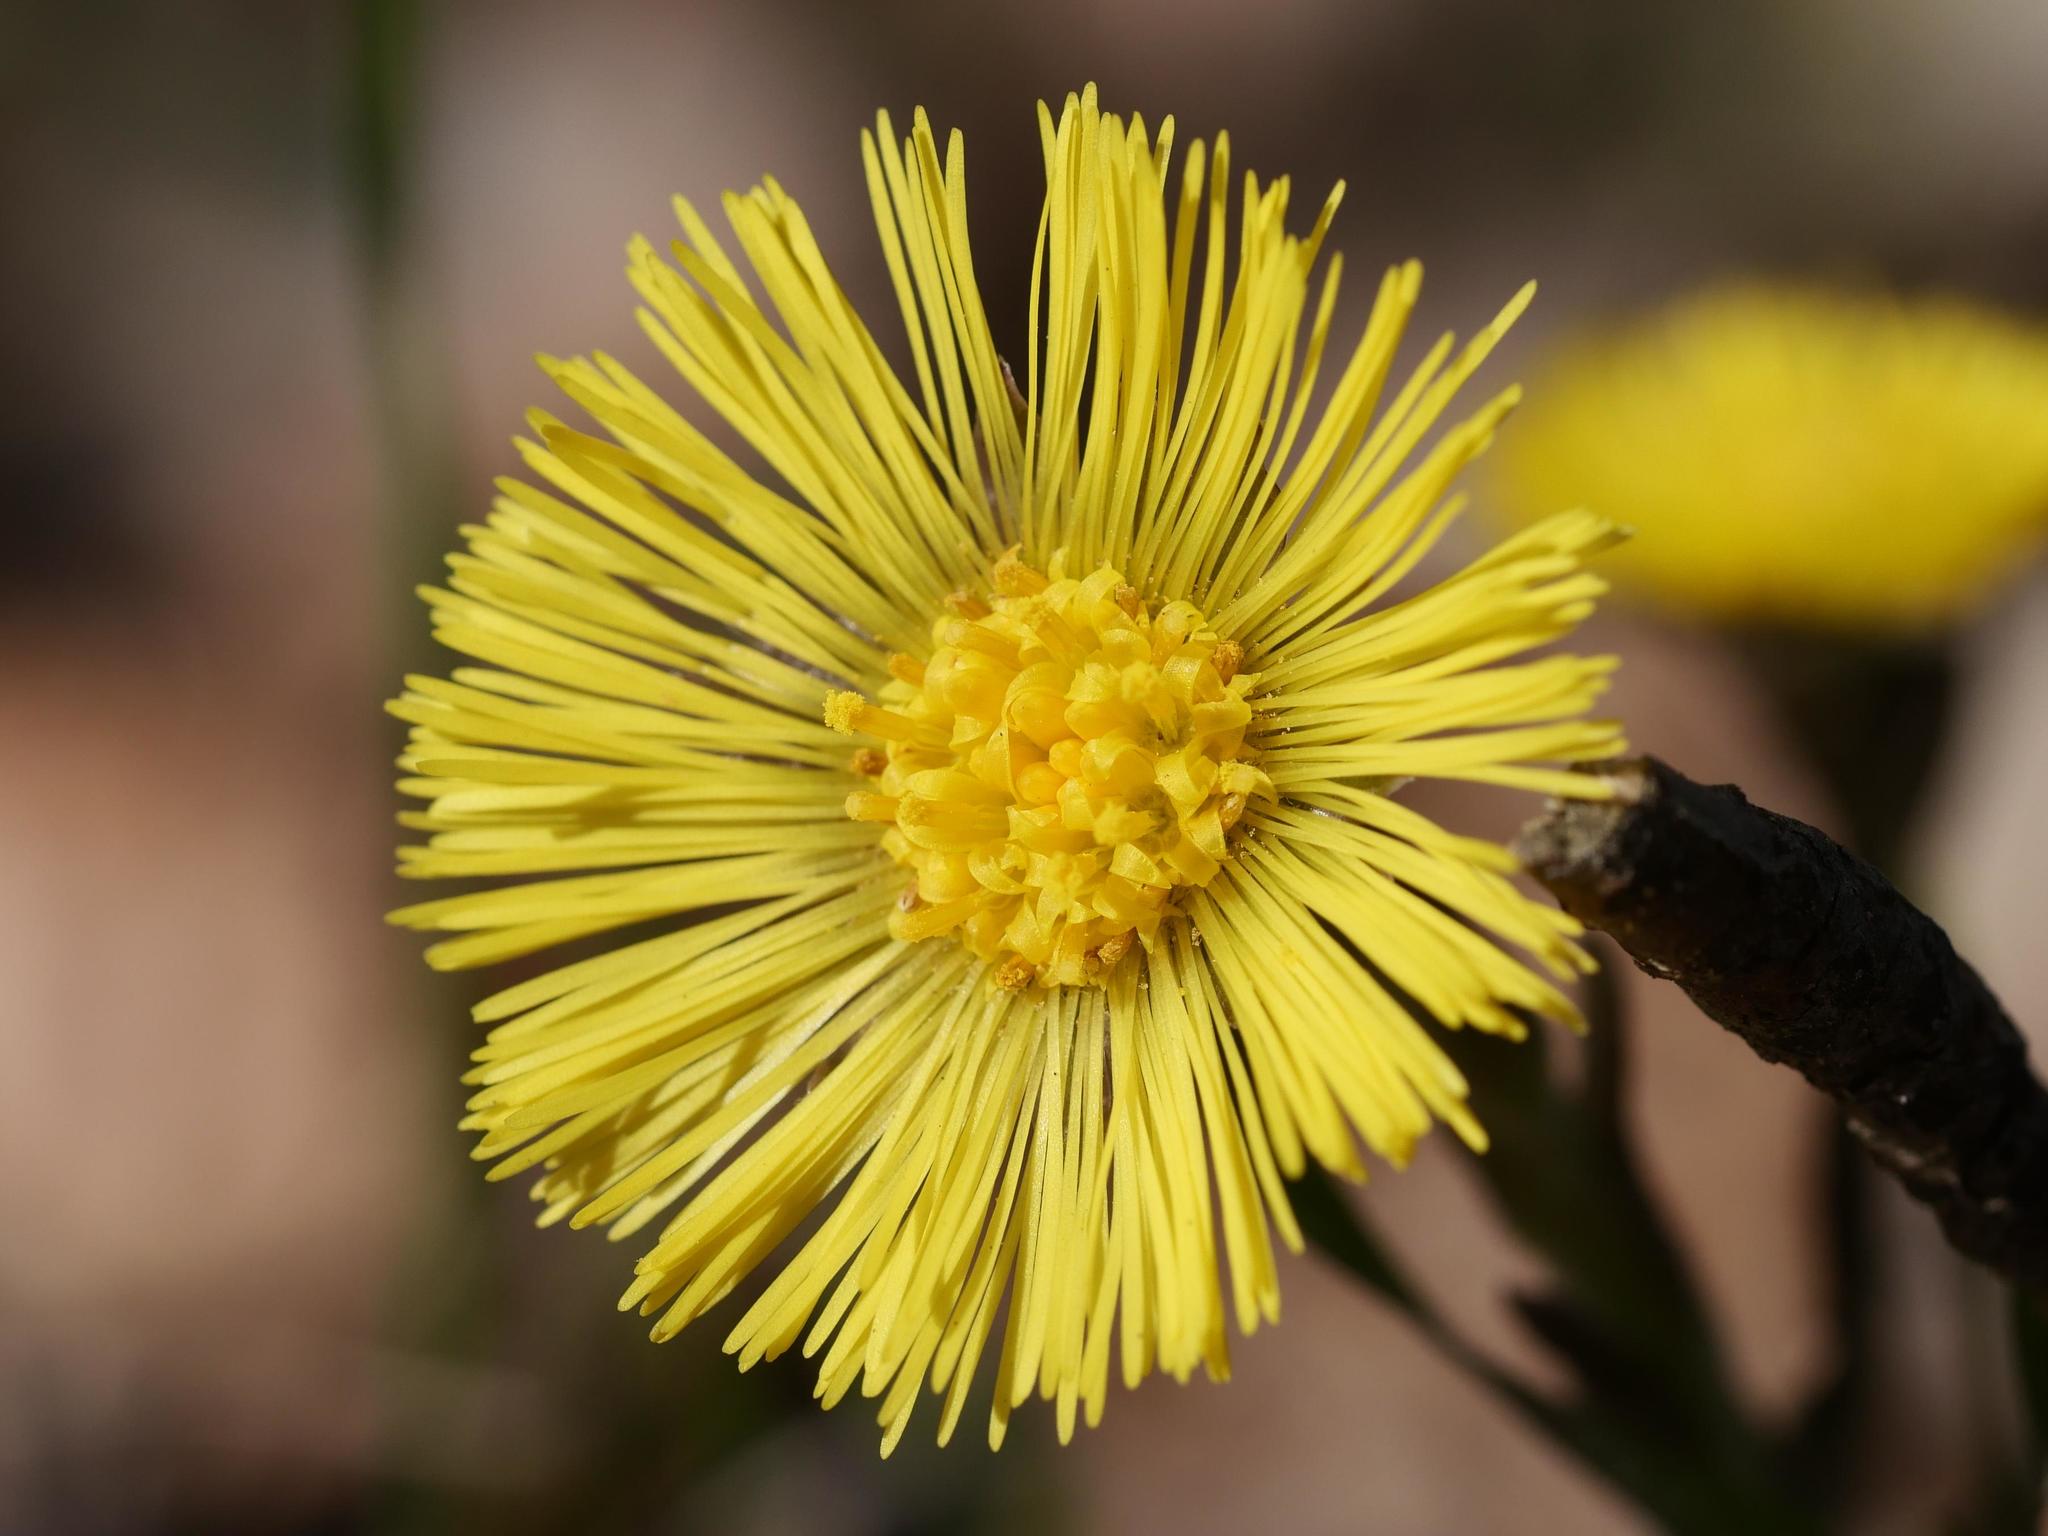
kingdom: Plantae
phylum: Tracheophyta
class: Magnoliopsida
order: Asterales
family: Asteraceae
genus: Tussilago
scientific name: Tussilago farfara
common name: Coltsfoot
